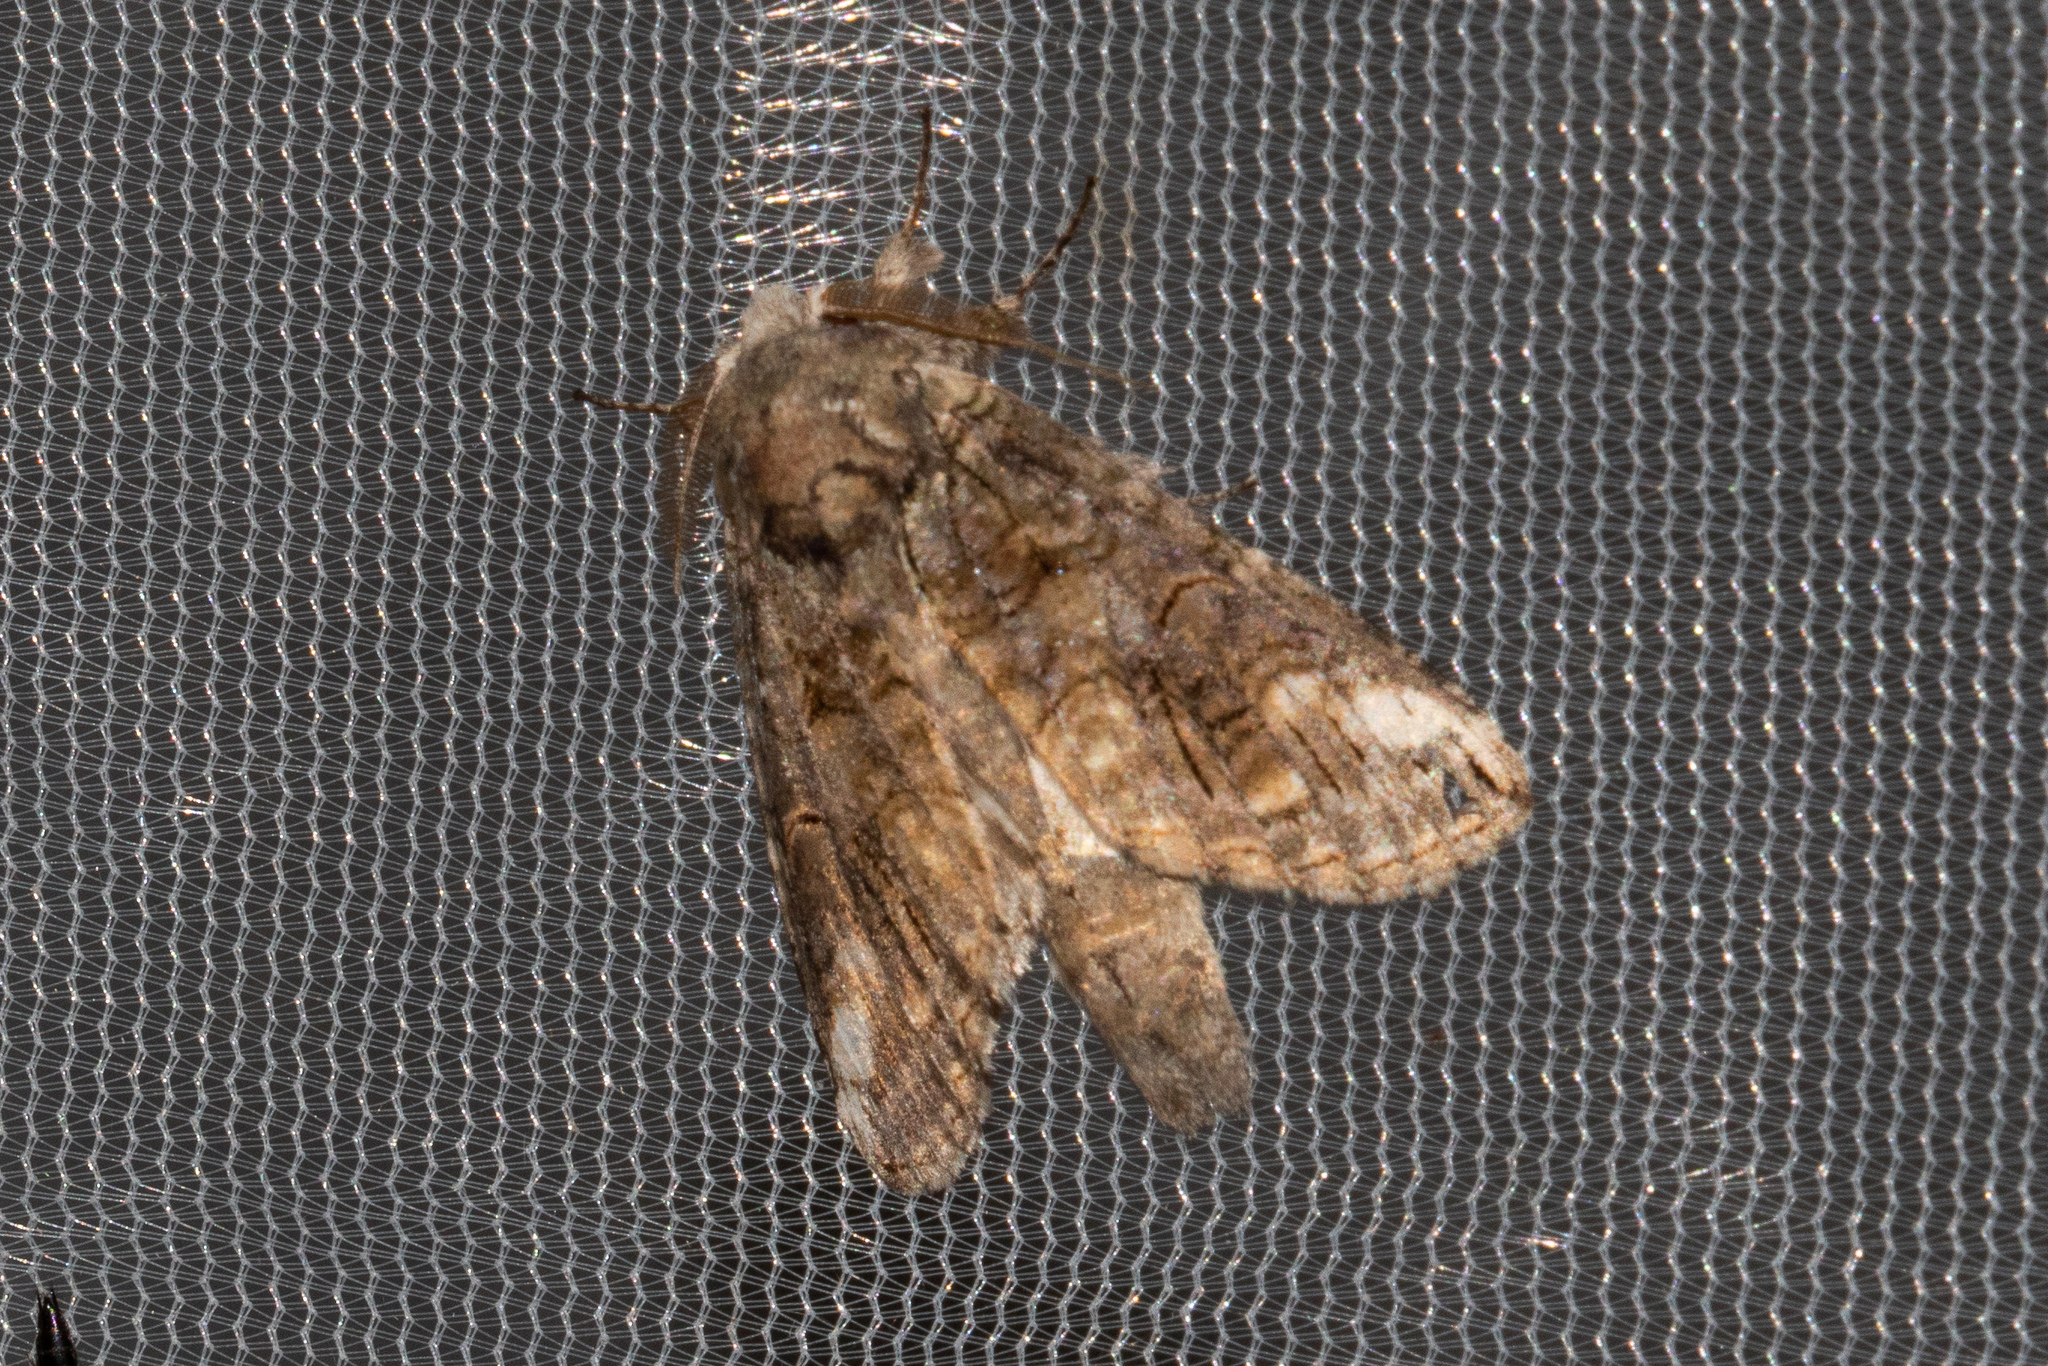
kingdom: Animalia
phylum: Arthropoda
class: Insecta
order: Lepidoptera
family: Notodontidae
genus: Heterocampa
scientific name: Heterocampa obliqua
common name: Oblique heterocampa
